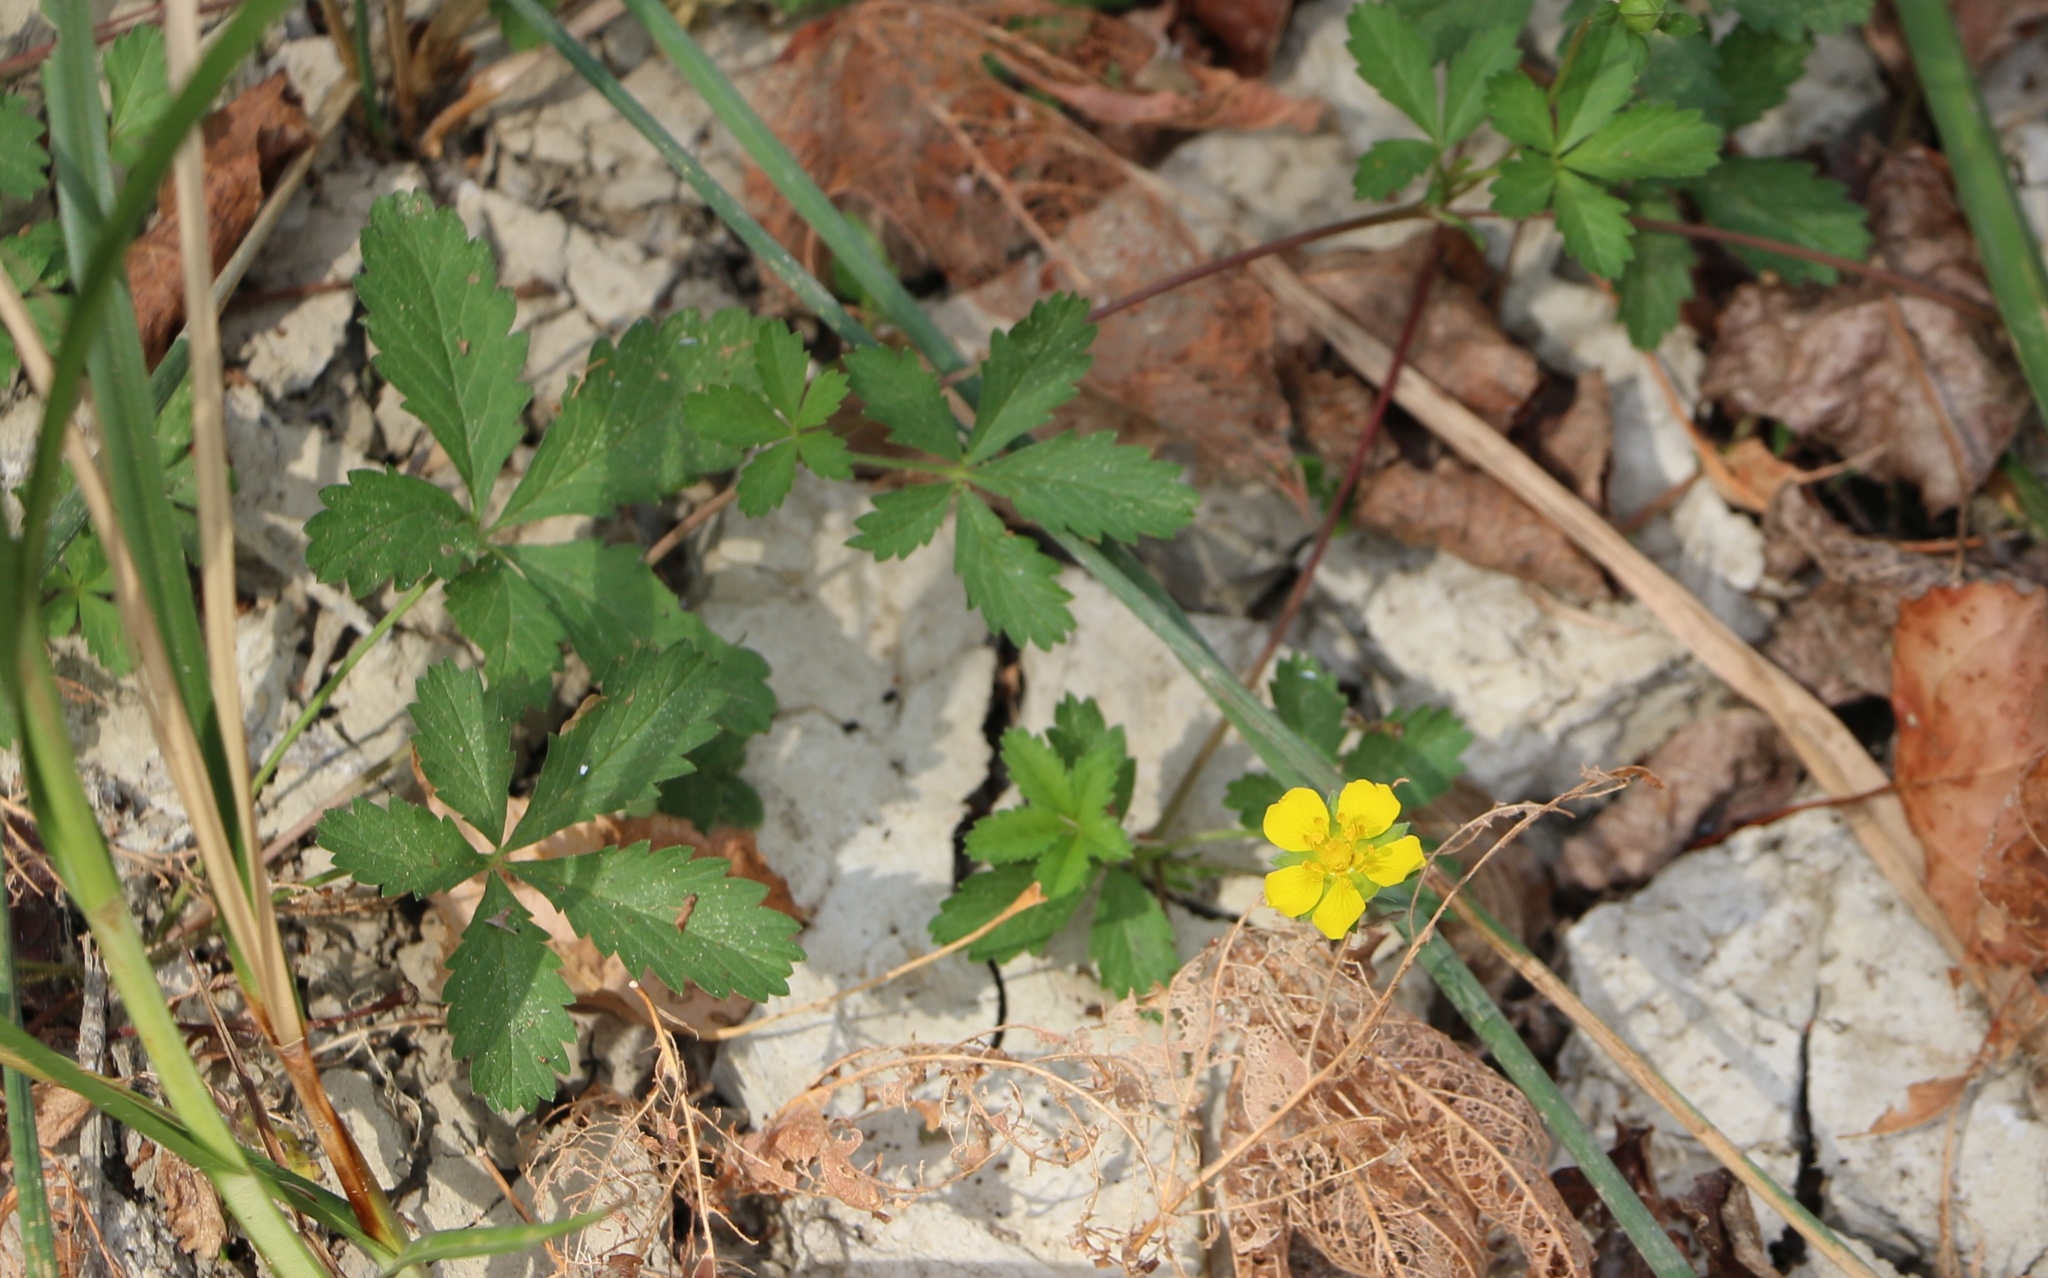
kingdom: Plantae
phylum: Tracheophyta
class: Magnoliopsida
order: Rosales
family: Rosaceae
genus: Potentilla
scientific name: Potentilla reptans
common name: Creeping cinquefoil
